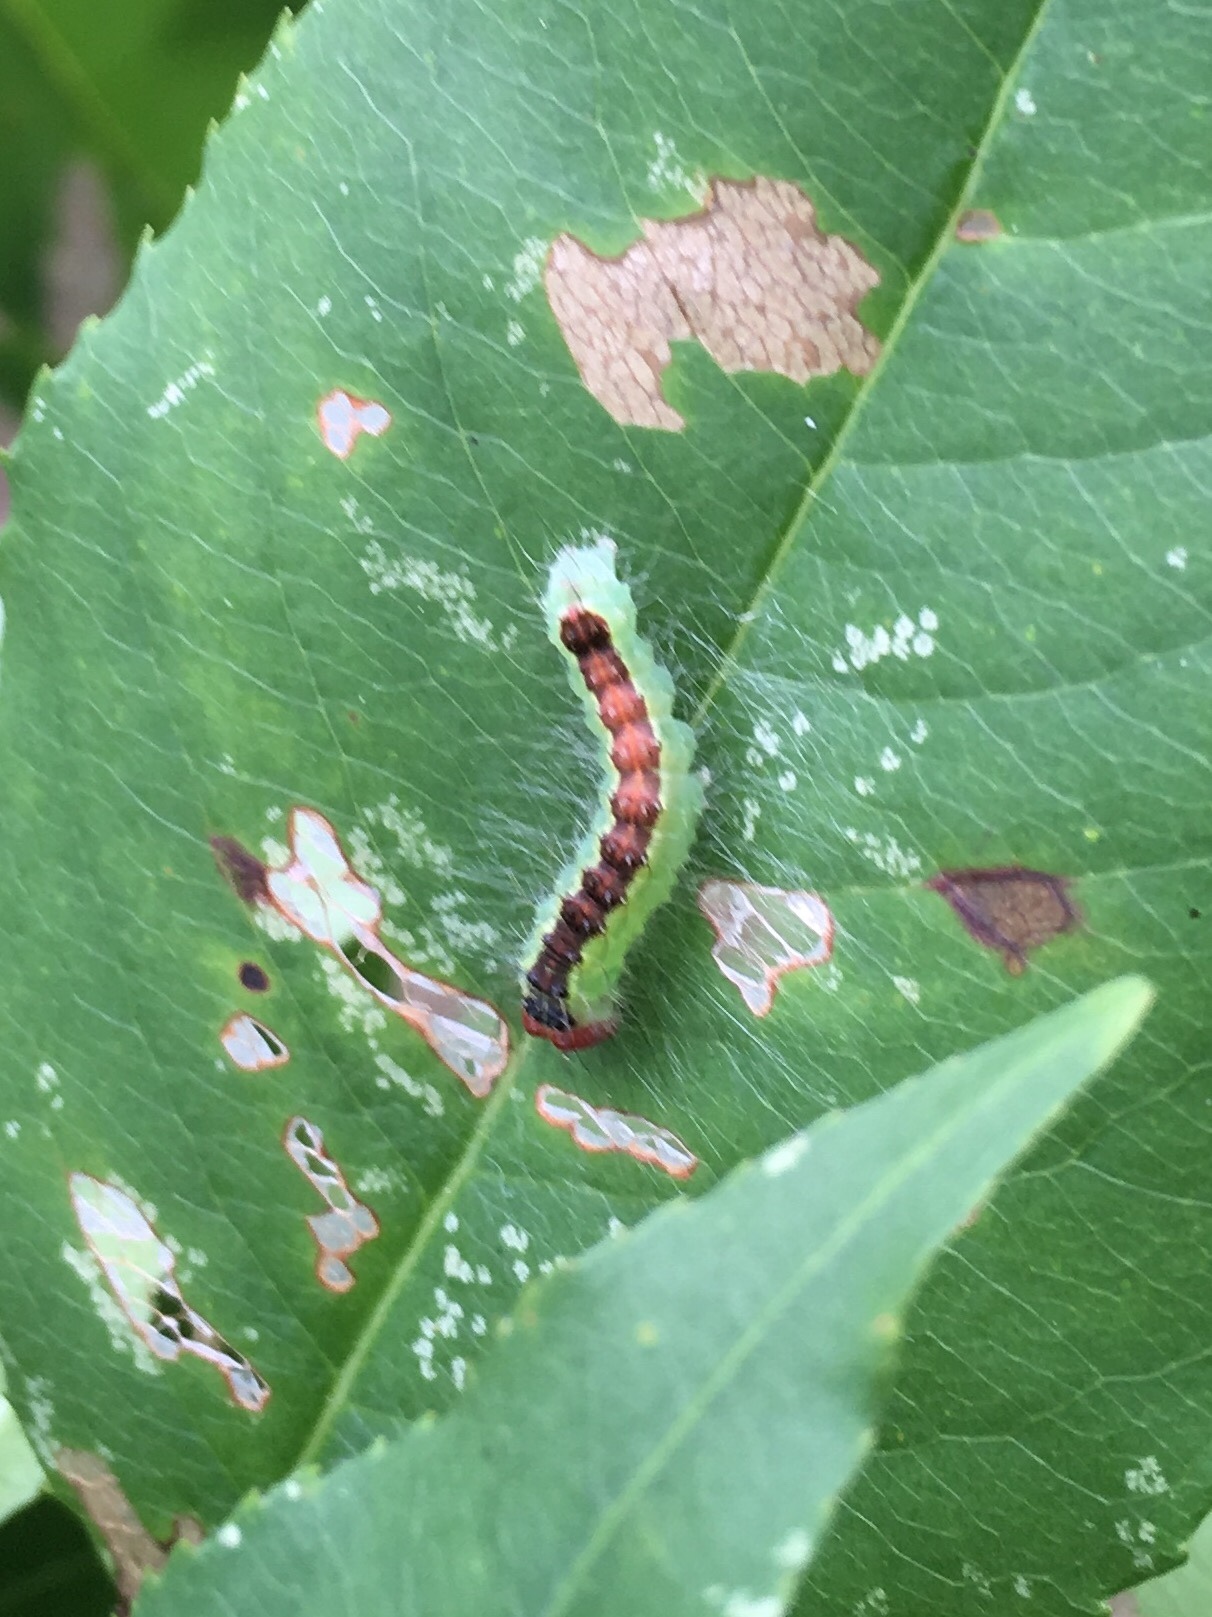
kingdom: Animalia
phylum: Arthropoda
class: Insecta
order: Lepidoptera
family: Noctuidae
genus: Acronicta
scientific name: Acronicta radcliffei
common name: Radcliffe's dagger
